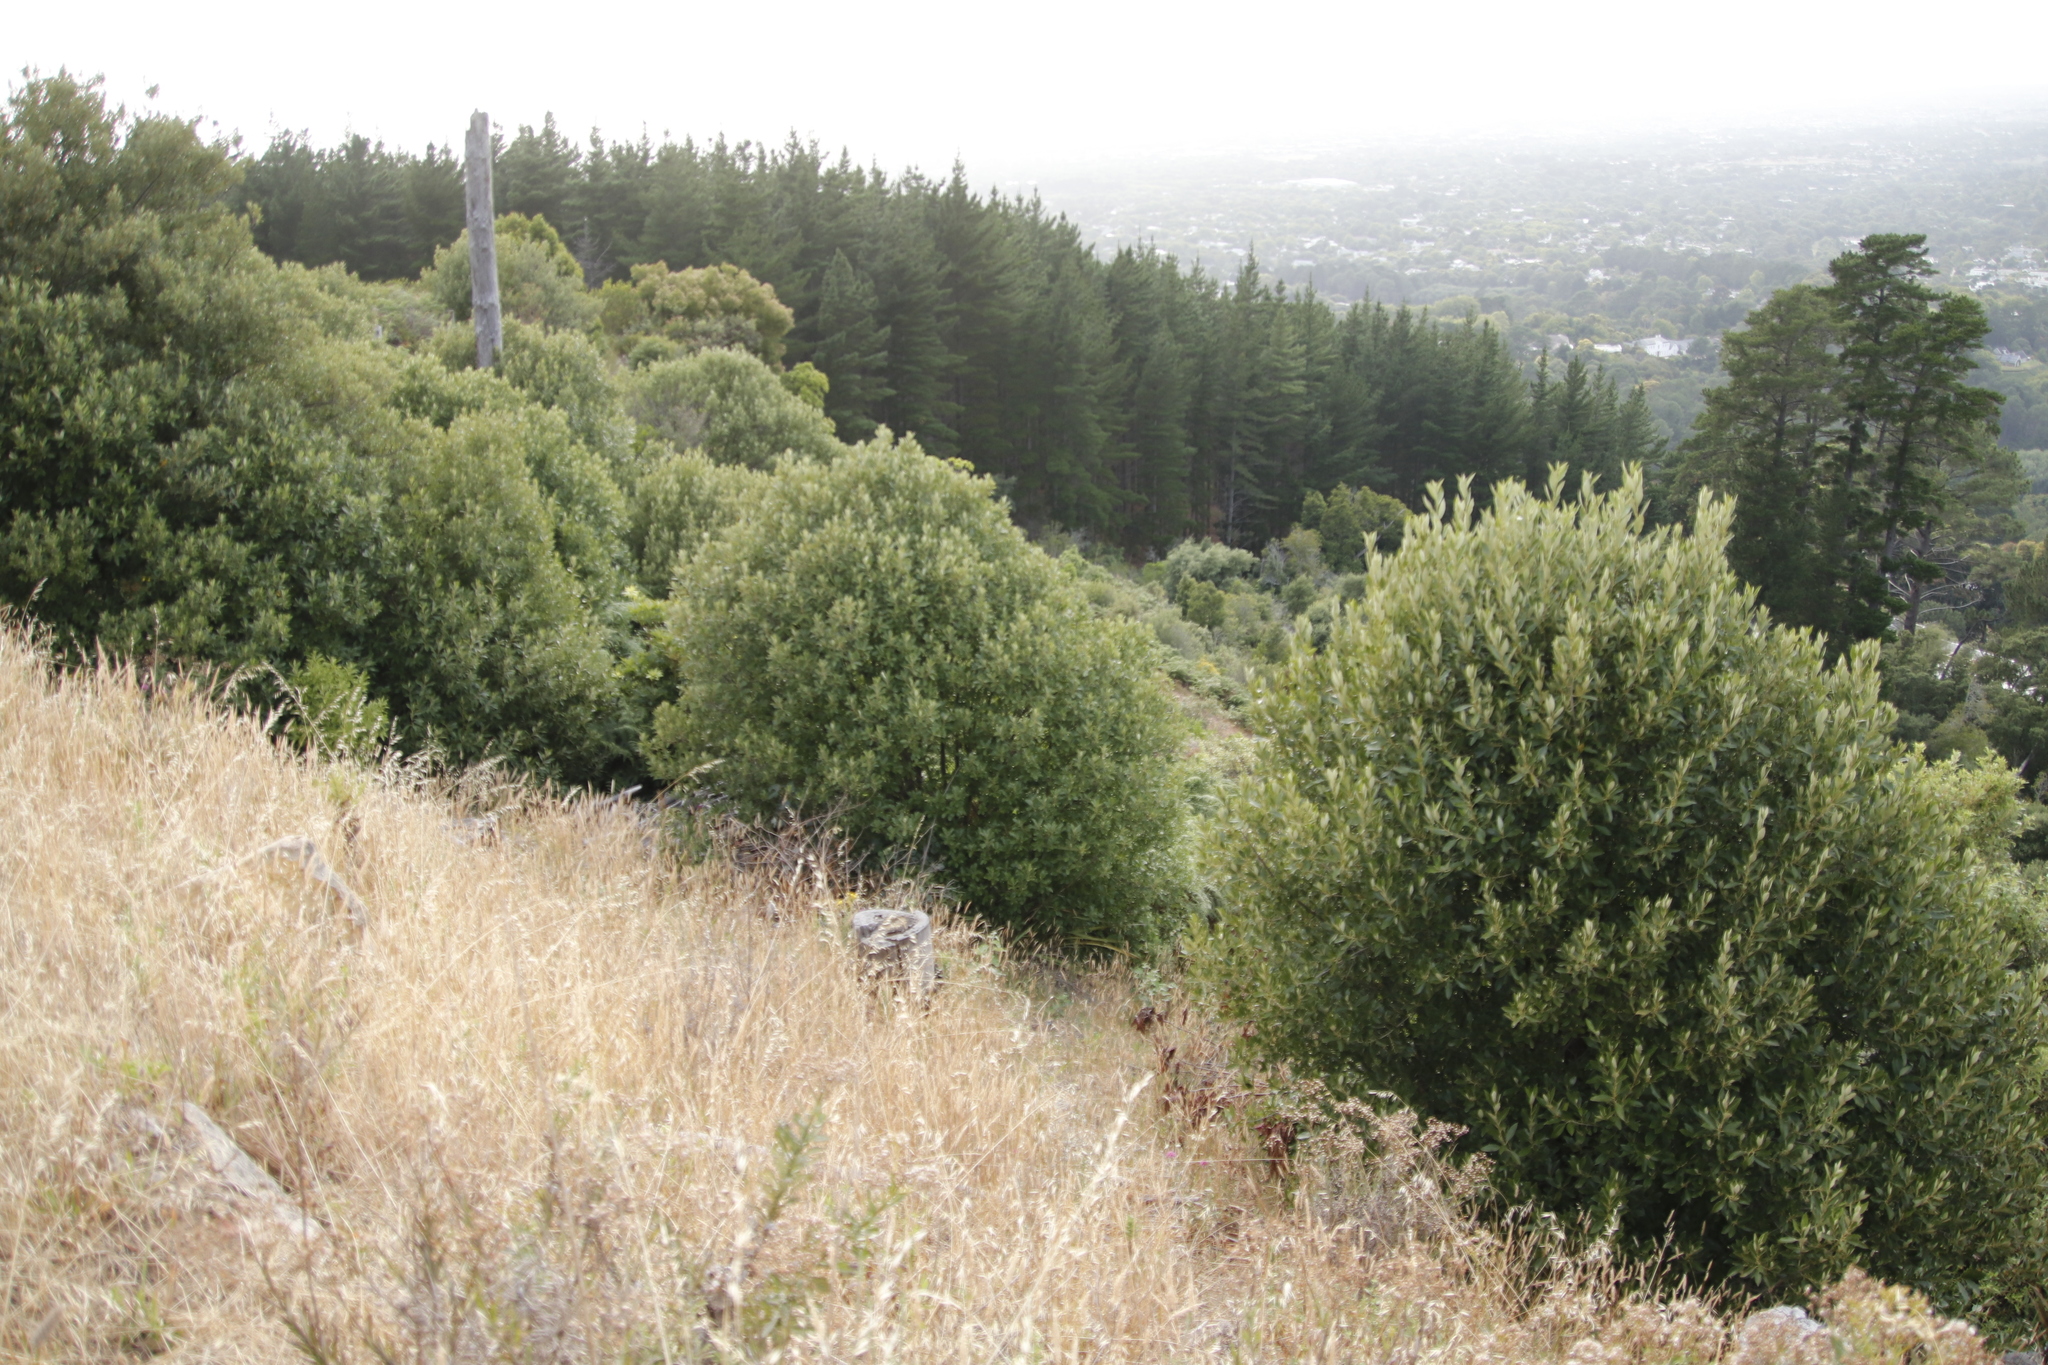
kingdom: Plantae
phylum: Tracheophyta
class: Magnoliopsida
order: Malpighiales
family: Achariaceae
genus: Kiggelaria
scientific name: Kiggelaria africana
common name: Wild peach
